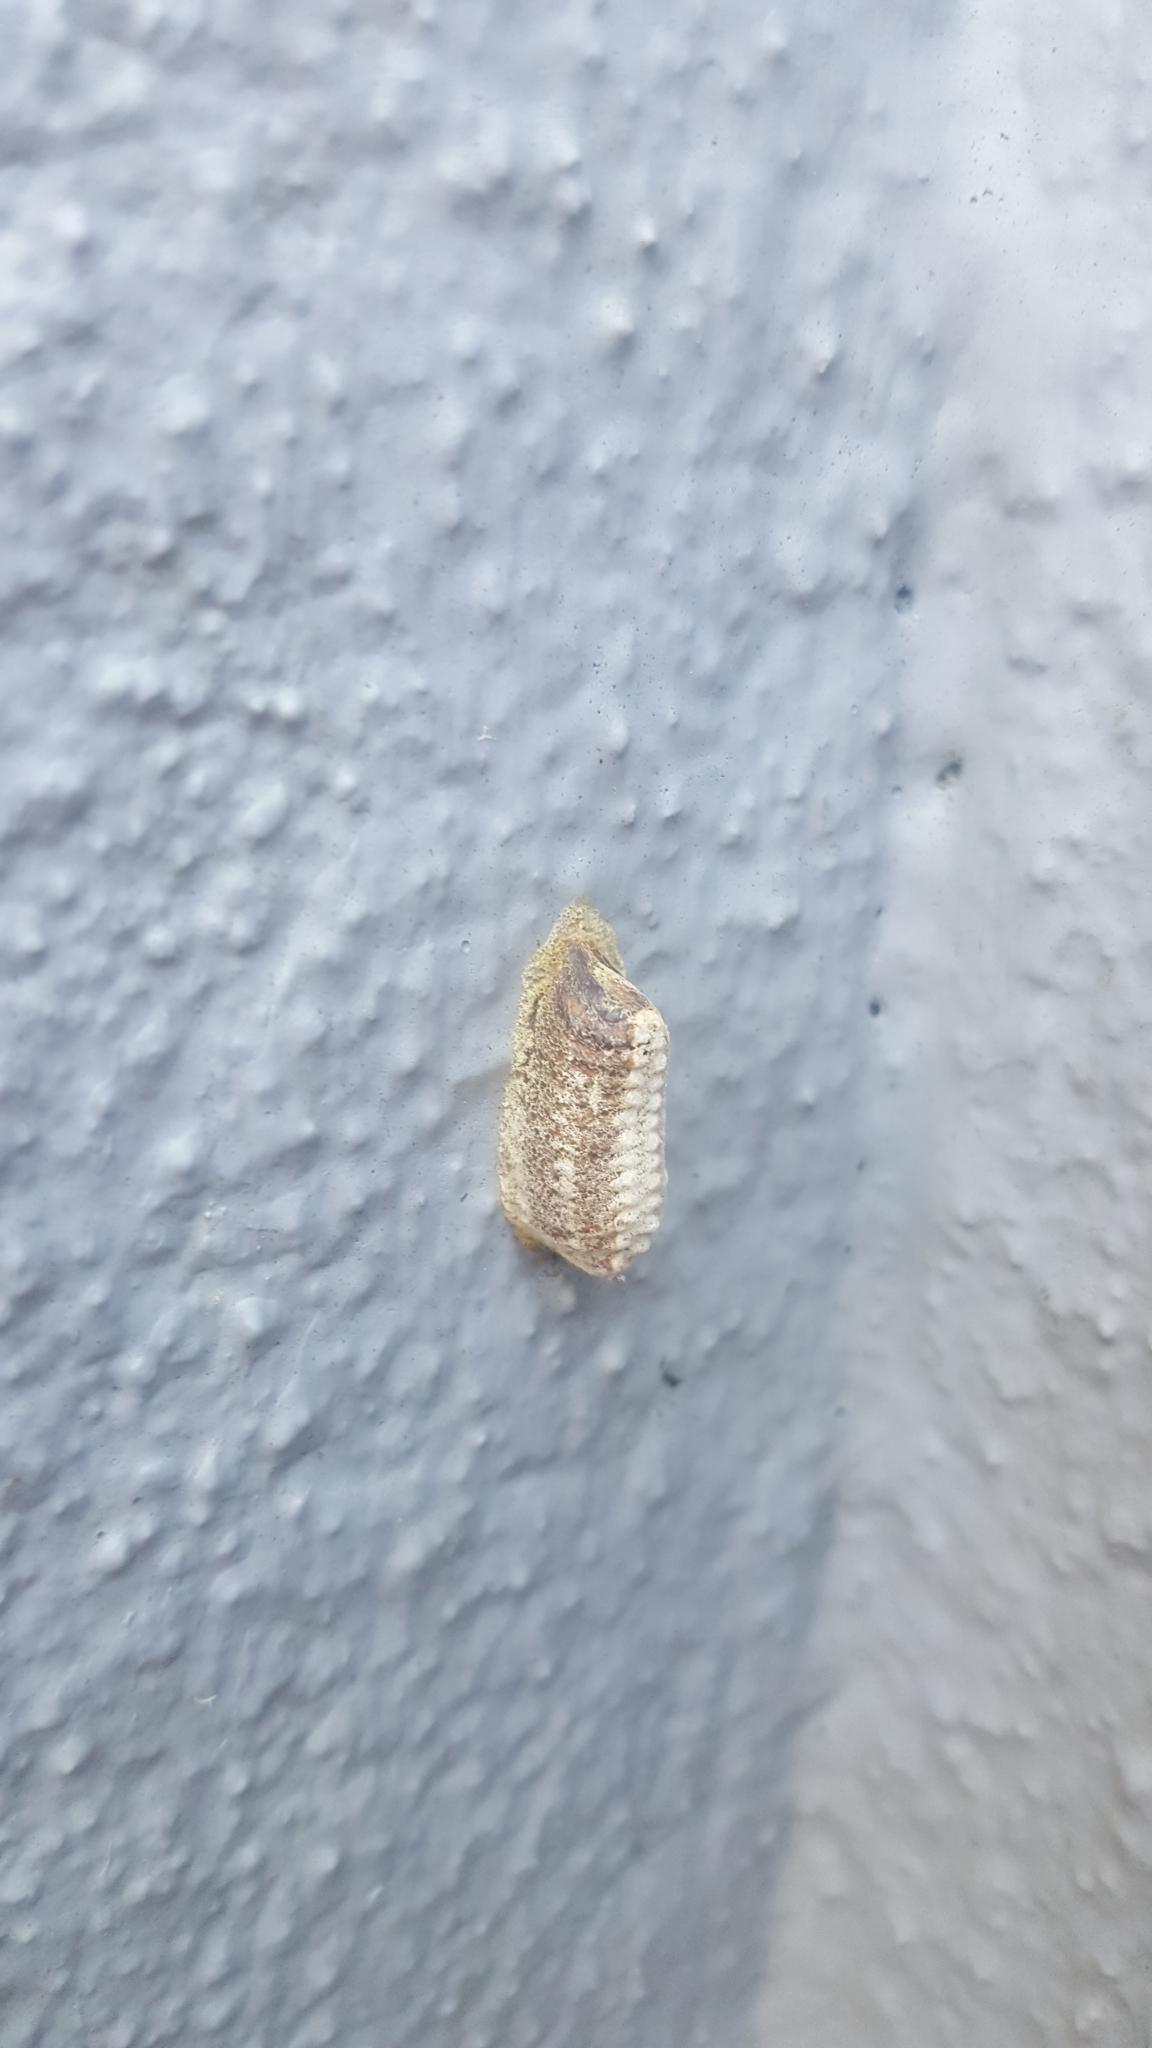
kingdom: Animalia
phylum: Arthropoda
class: Insecta
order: Mantodea
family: Mantidae
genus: Orthodera
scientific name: Orthodera novaezealandiae
